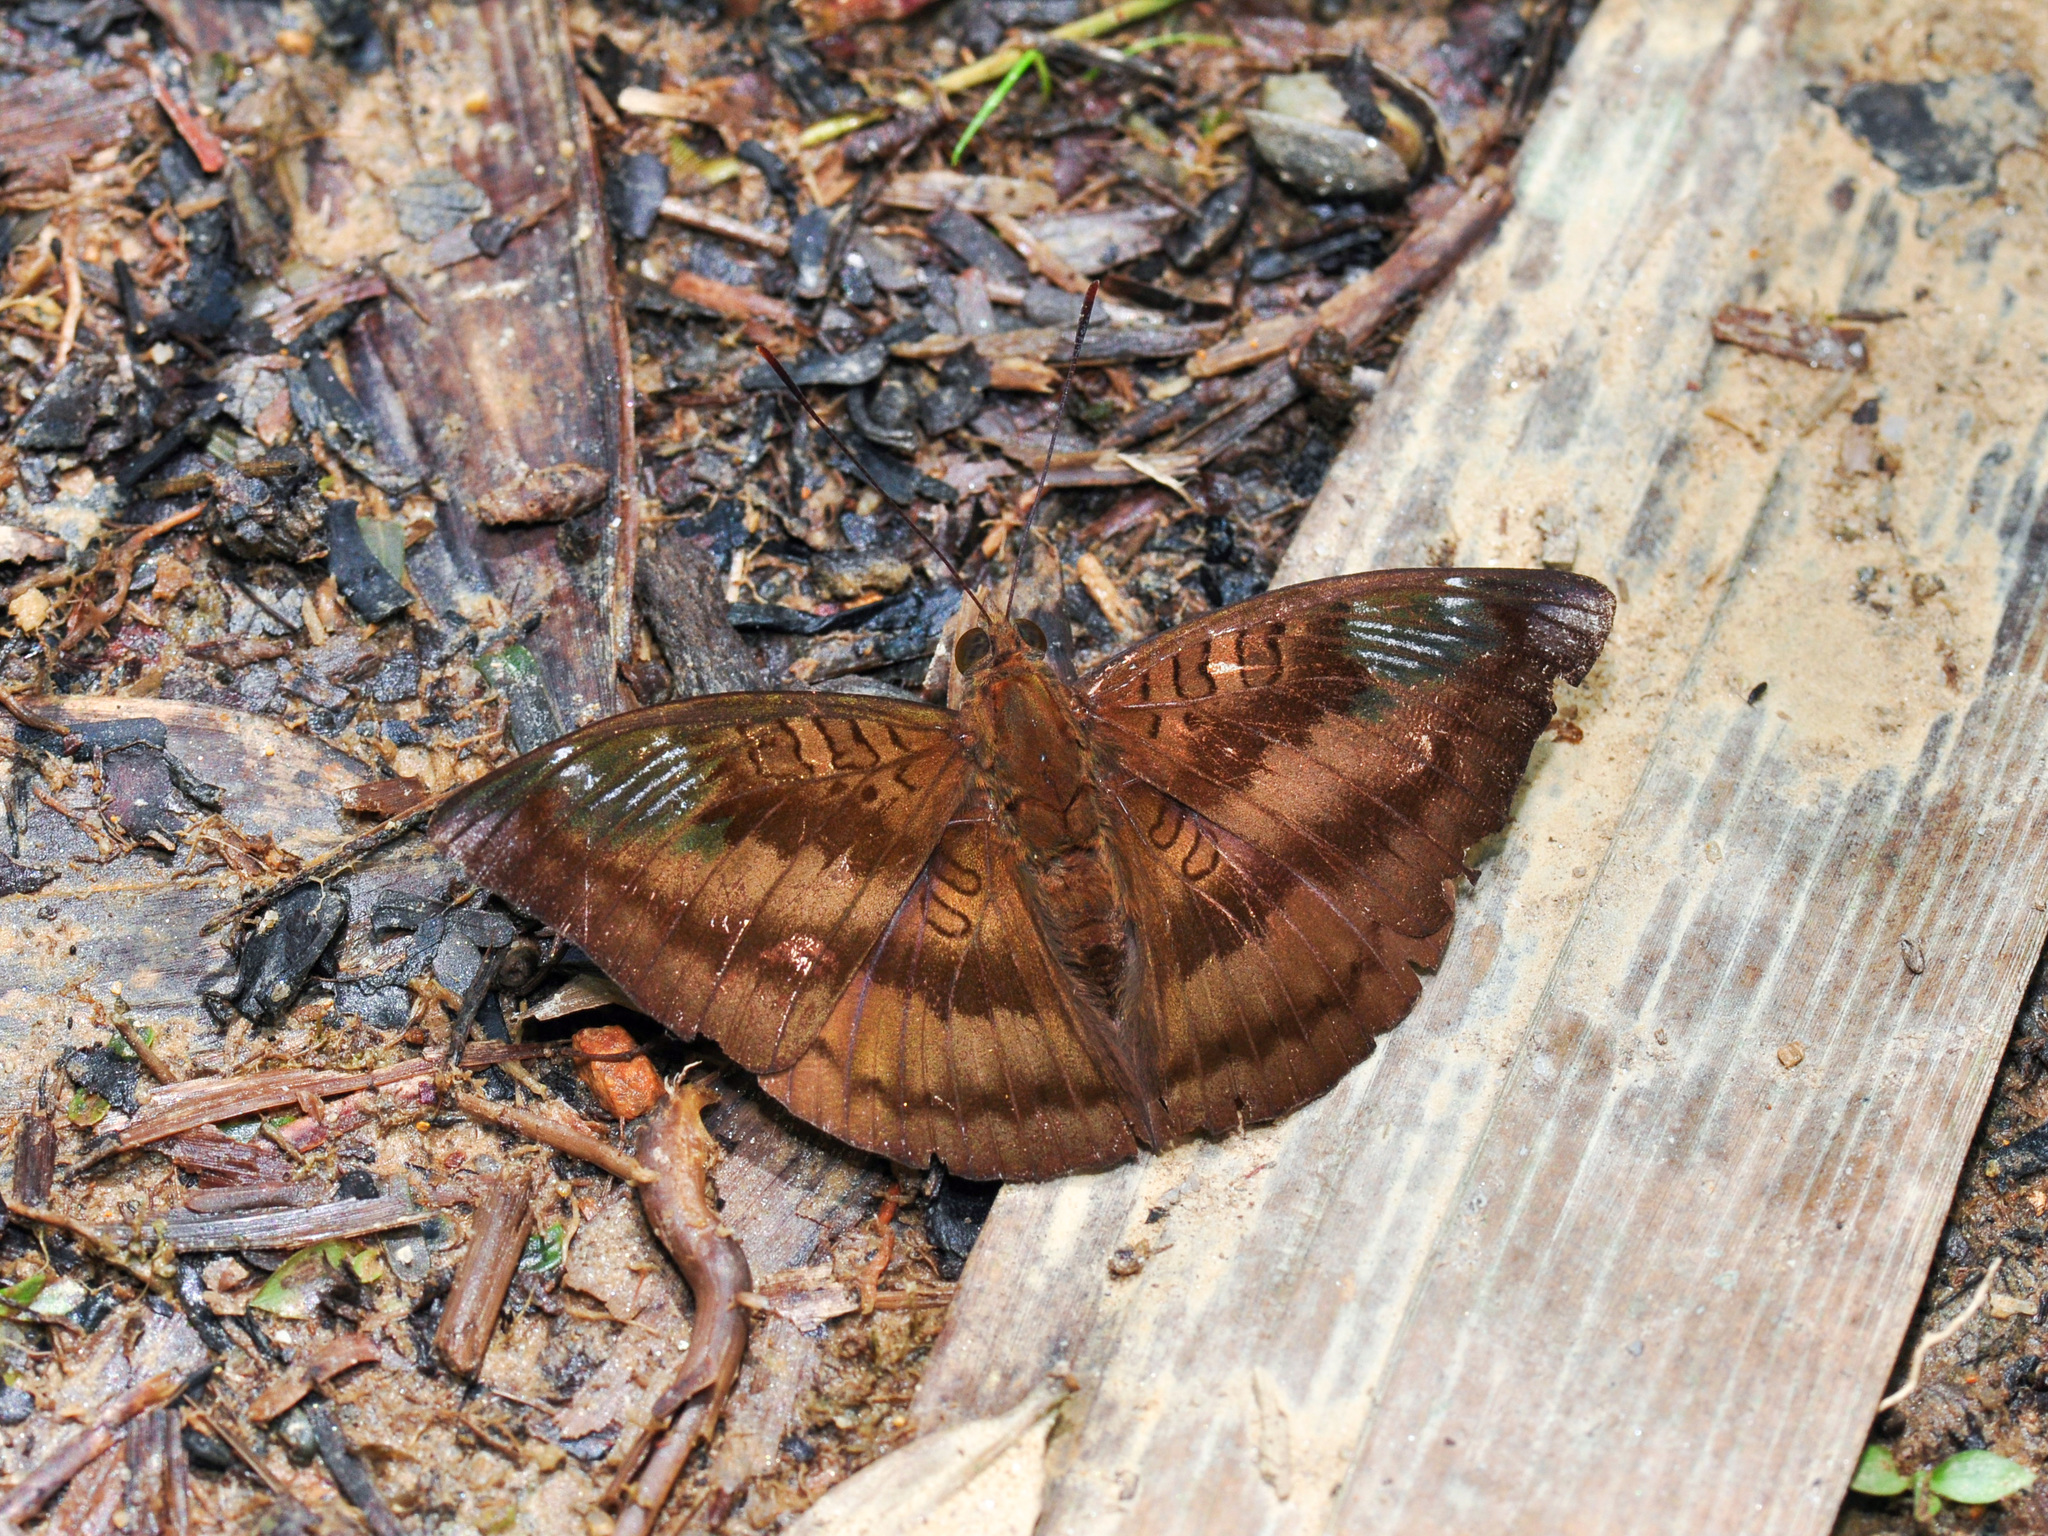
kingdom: Animalia
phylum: Arthropoda
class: Insecta
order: Lepidoptera
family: Nymphalidae
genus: Euthalia
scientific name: Euthalia alpheda
